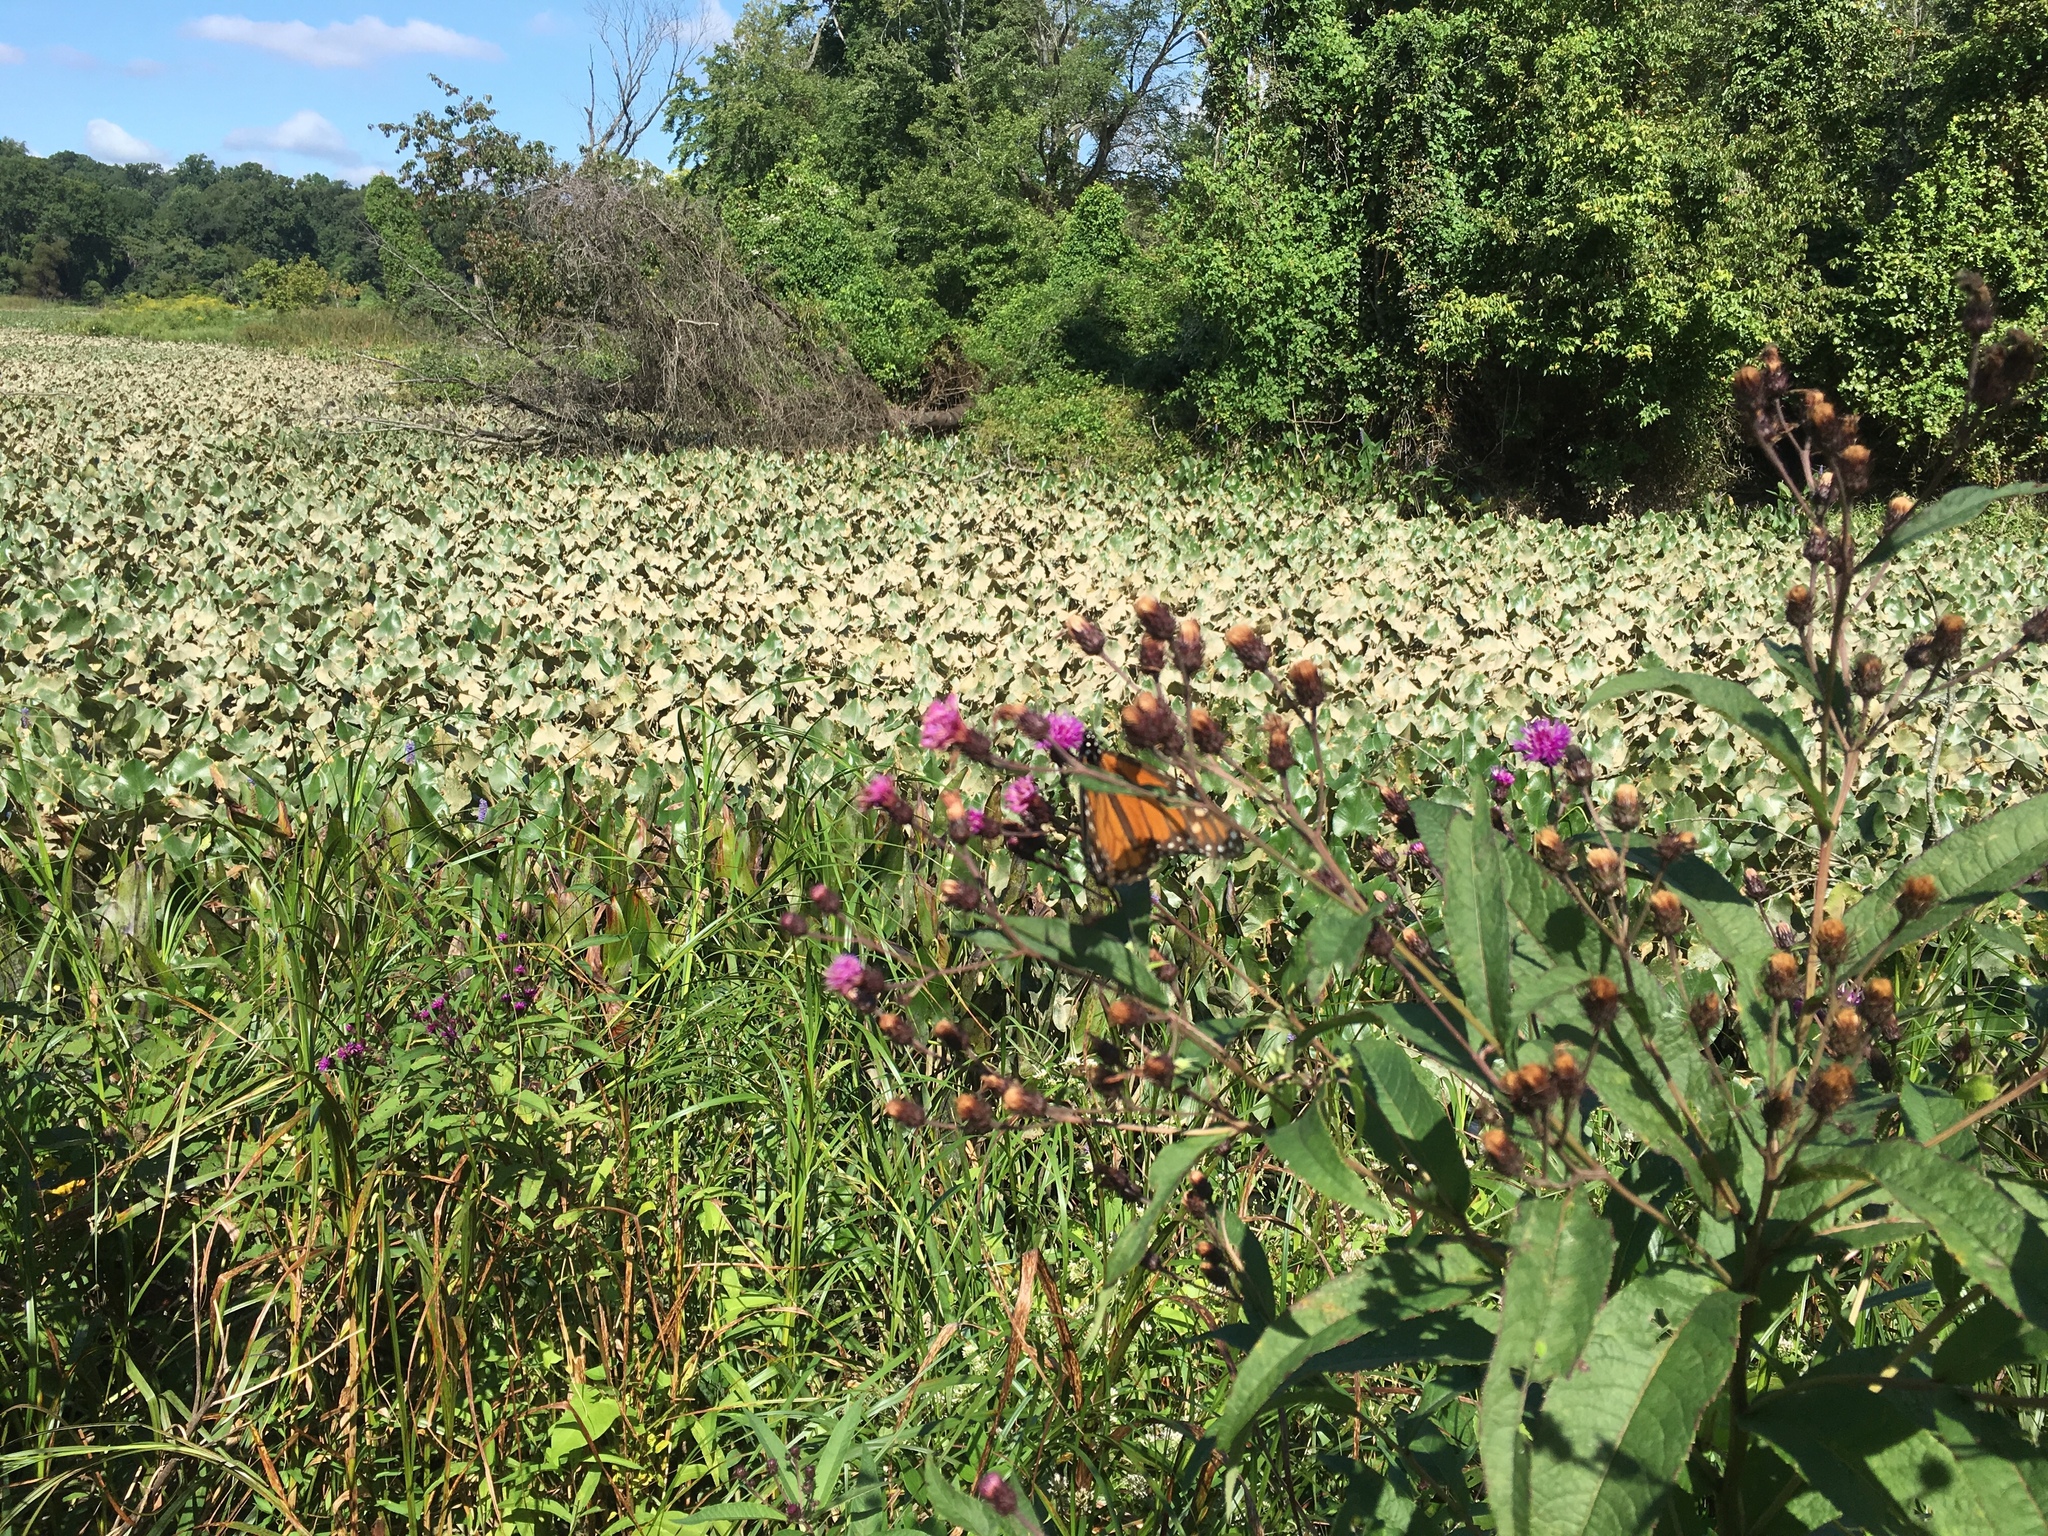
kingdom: Animalia
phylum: Arthropoda
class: Insecta
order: Lepidoptera
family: Nymphalidae
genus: Danaus
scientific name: Danaus plexippus
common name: Monarch
